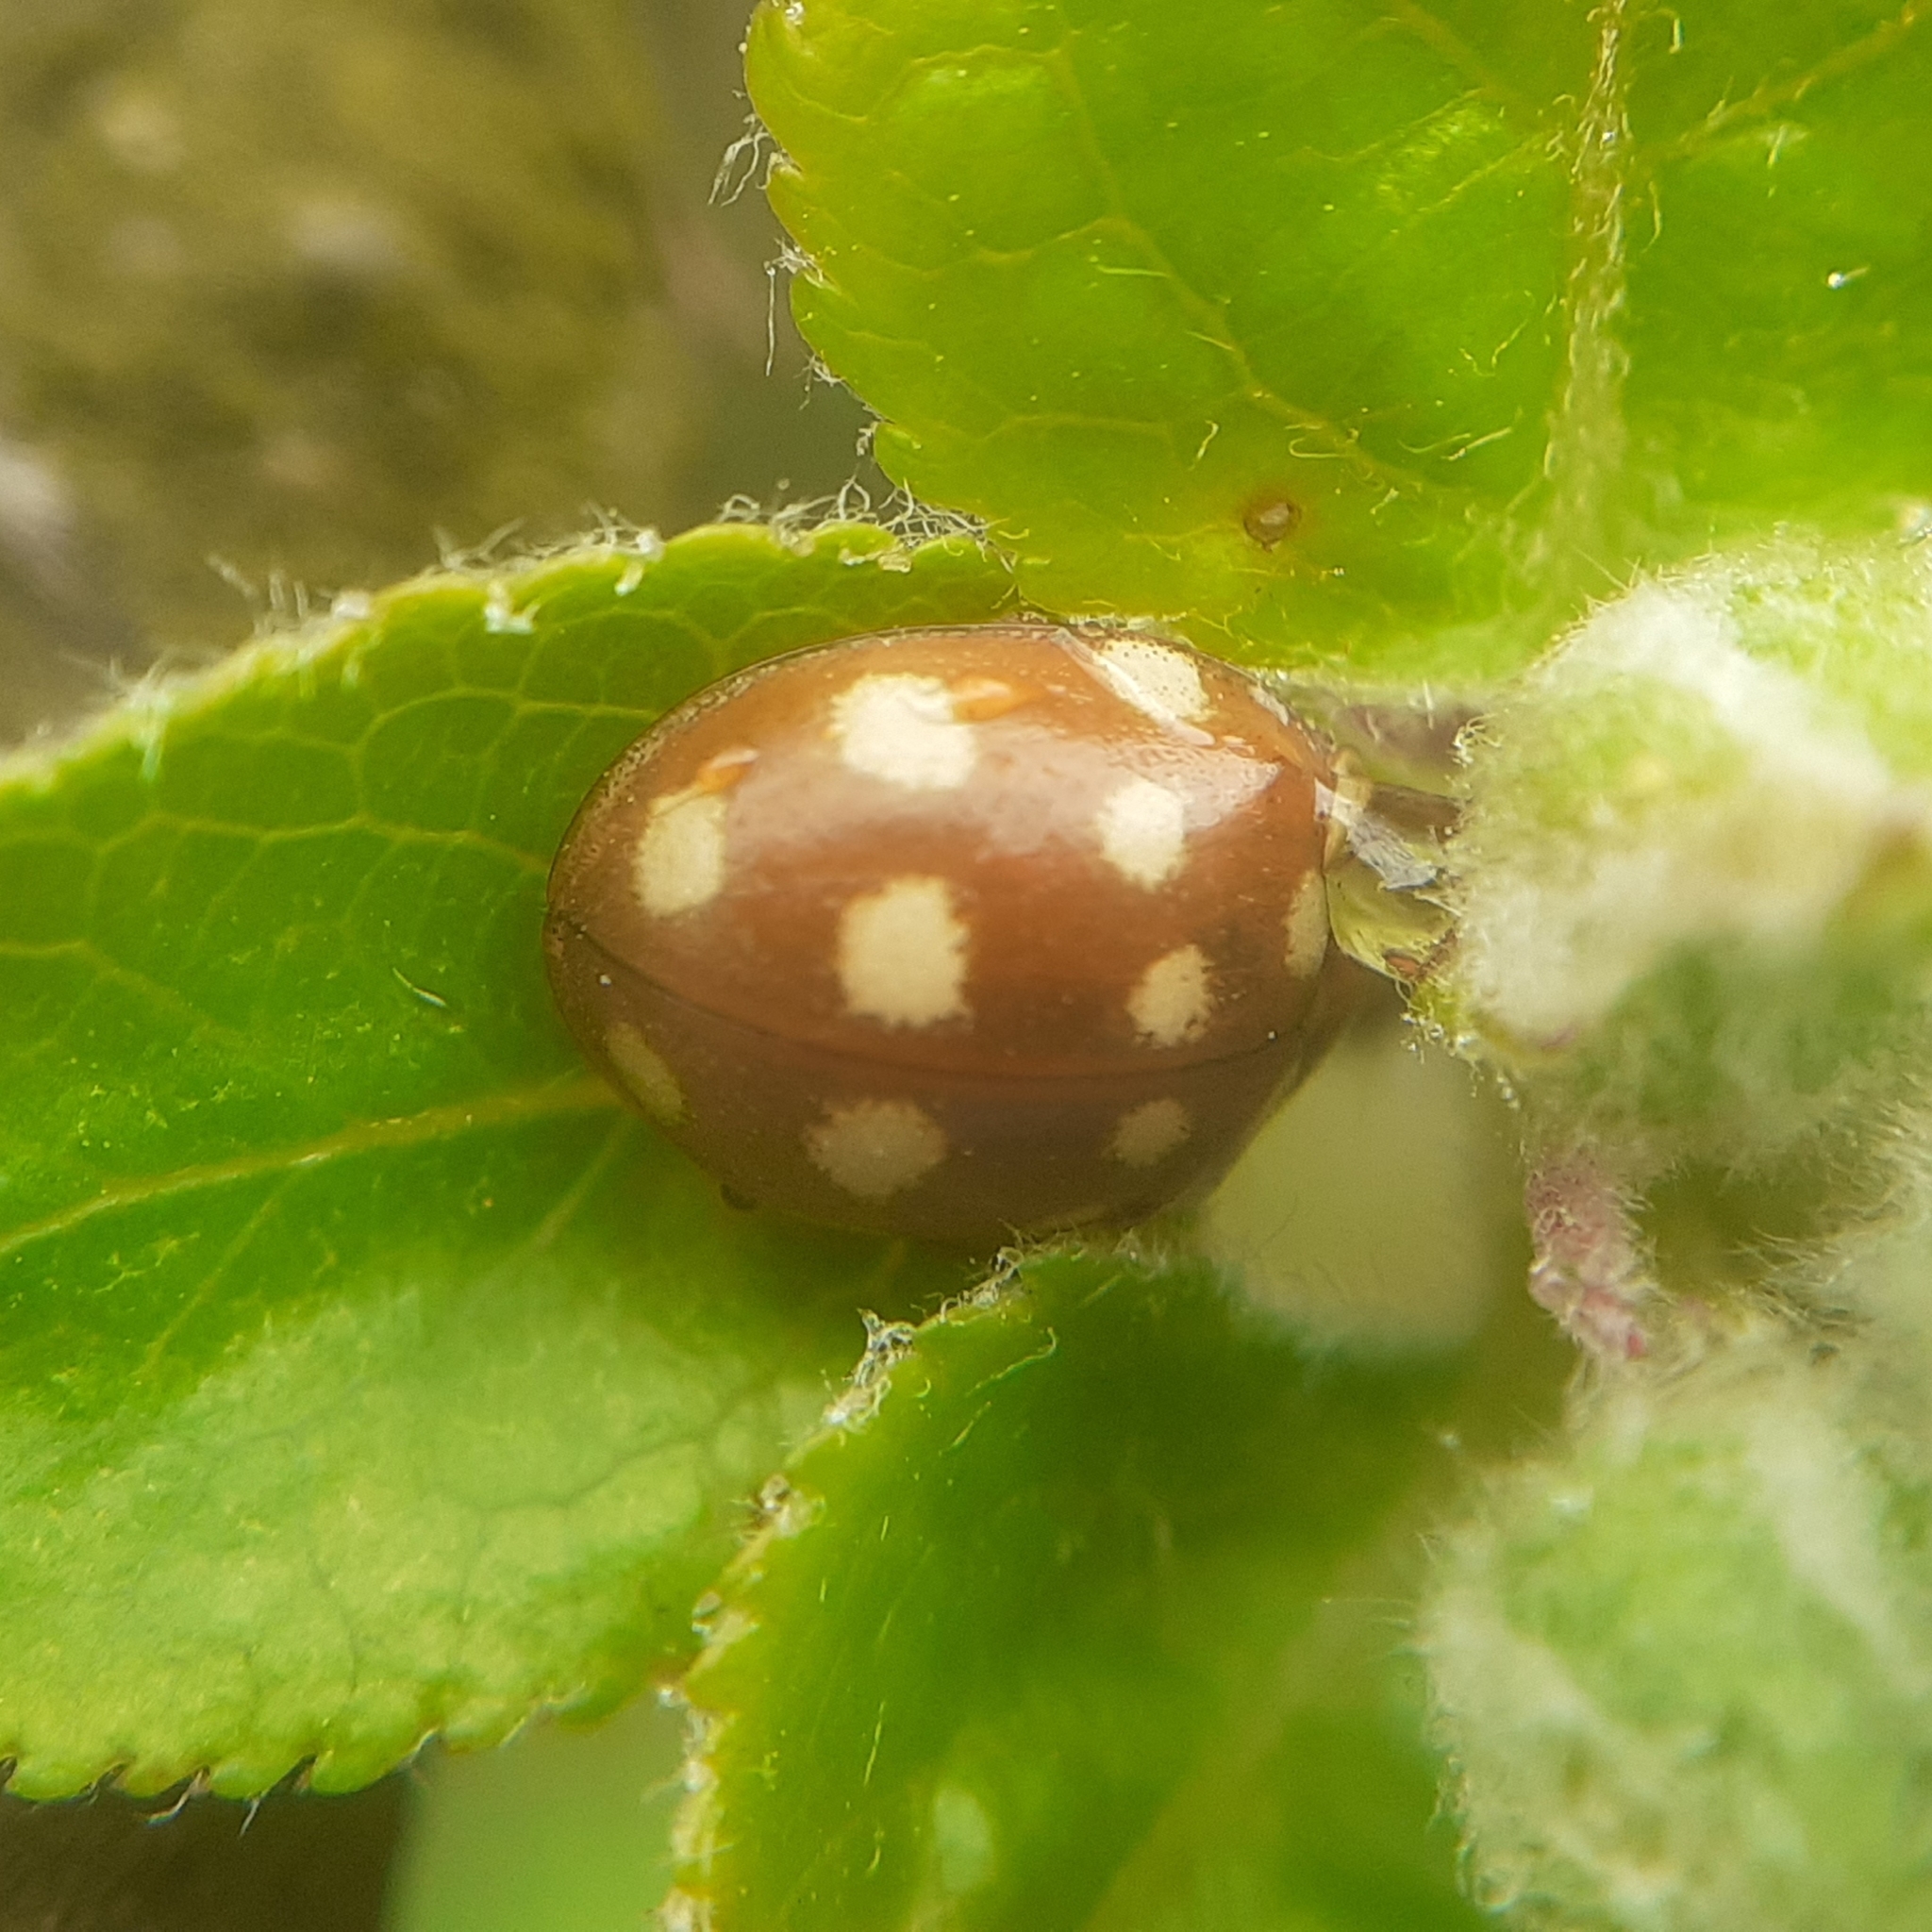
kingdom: Animalia
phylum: Arthropoda
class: Insecta
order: Coleoptera
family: Coccinellidae
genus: Calvia
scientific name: Calvia quatuordecimguttata
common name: Cream-spot ladybird
